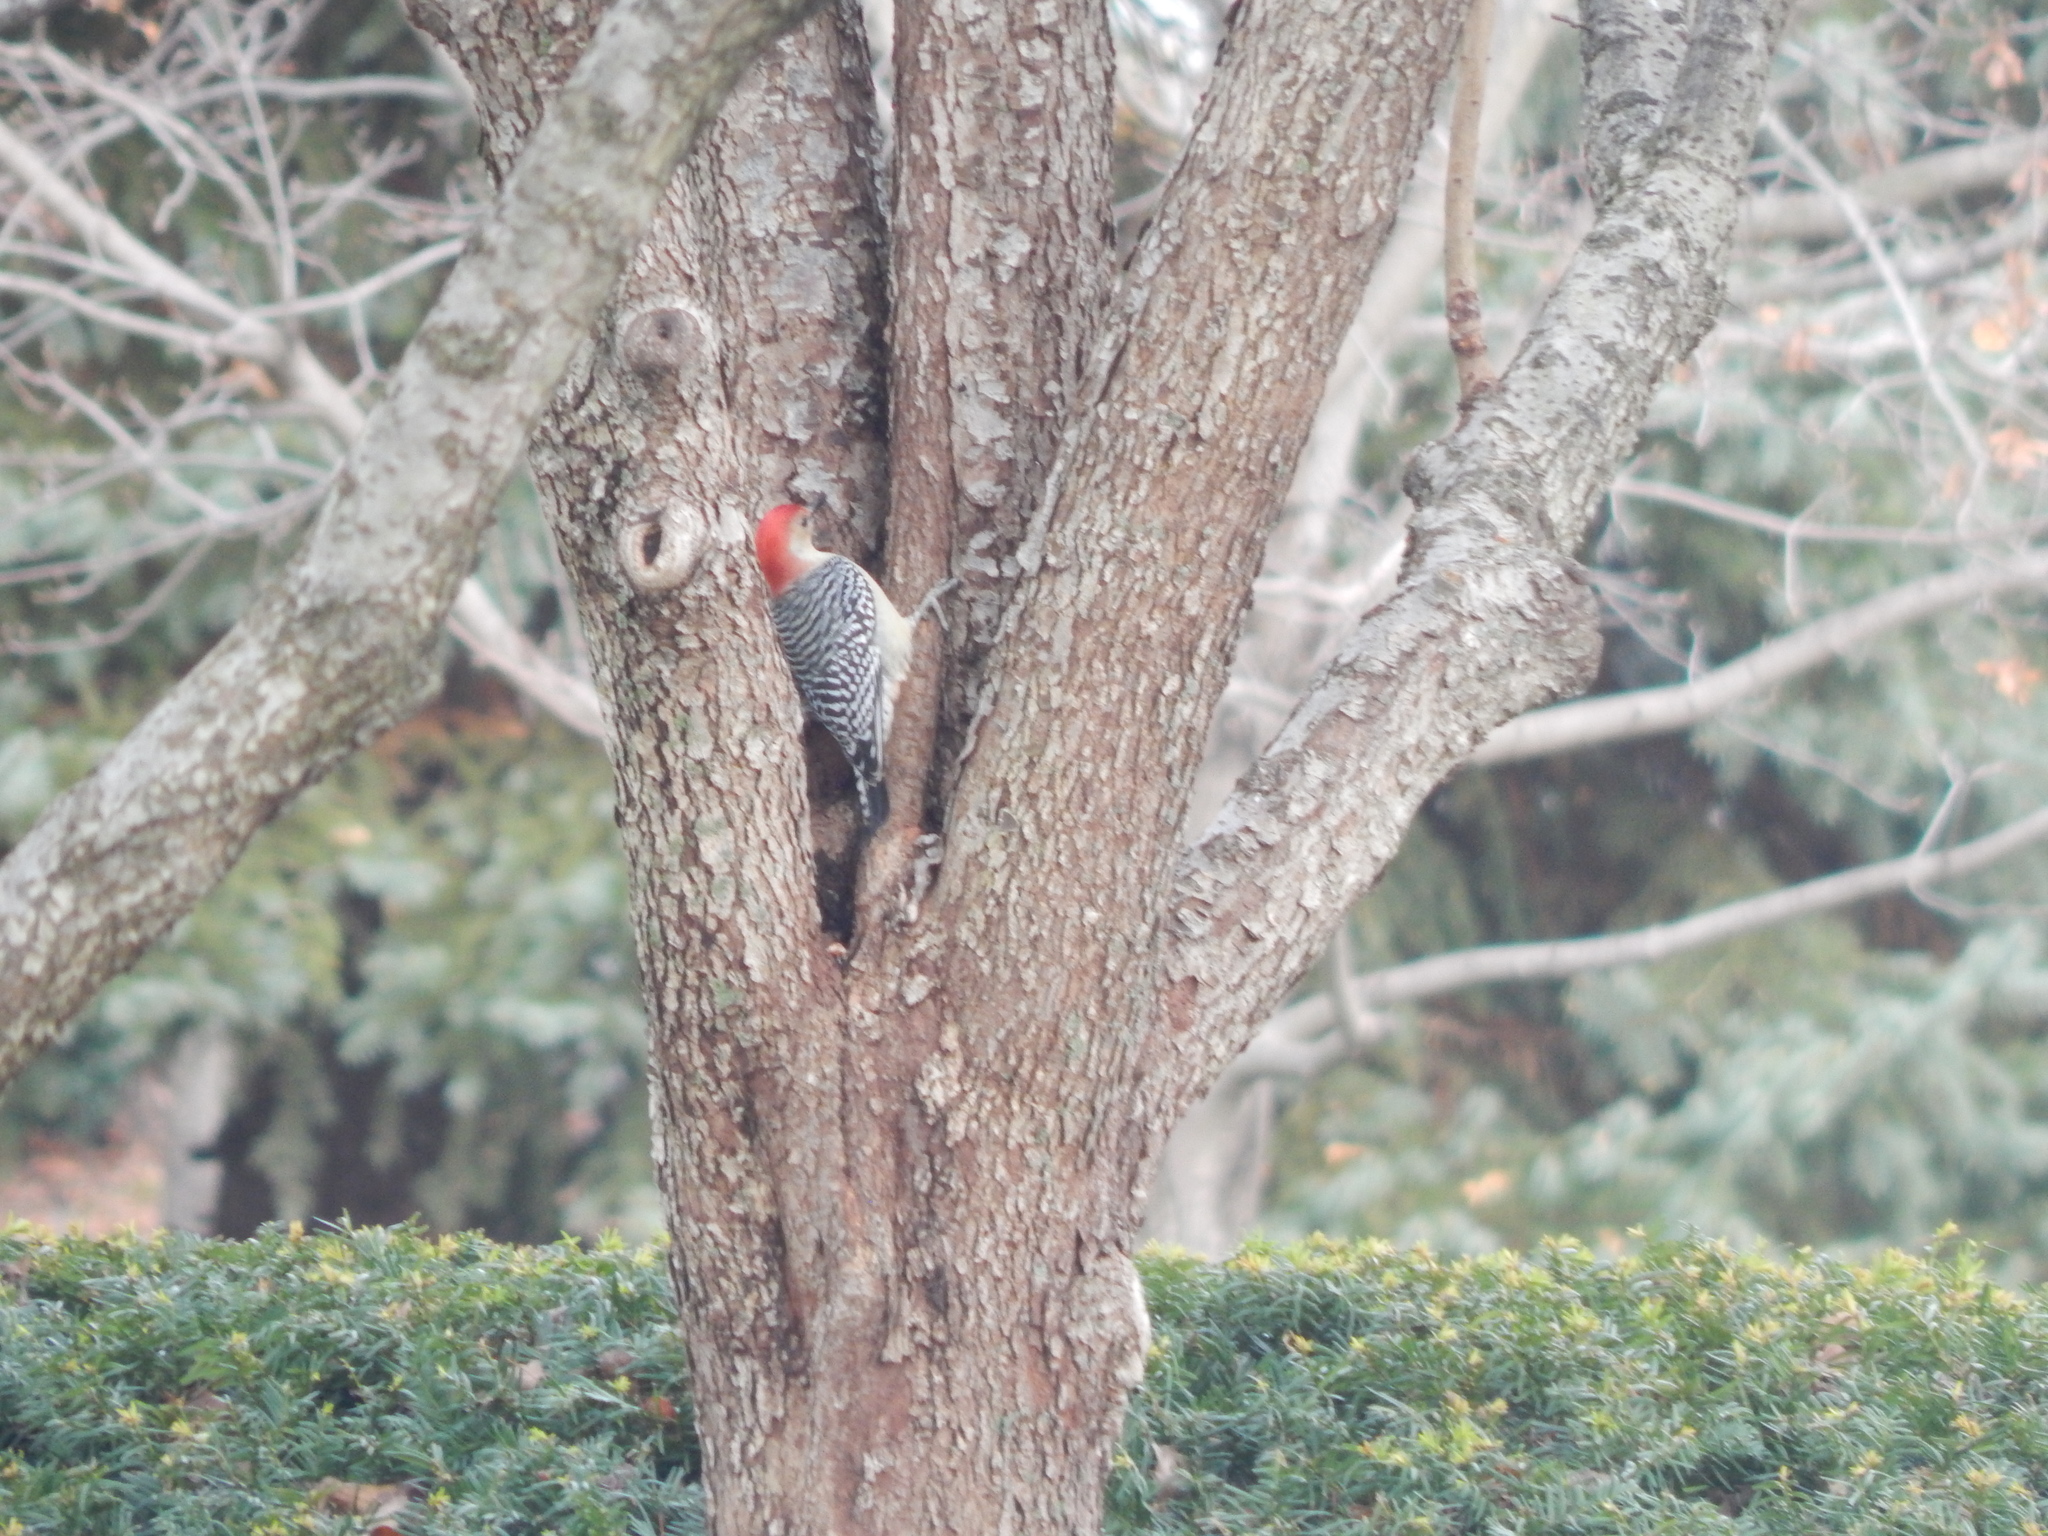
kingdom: Animalia
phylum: Chordata
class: Aves
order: Piciformes
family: Picidae
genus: Melanerpes
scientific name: Melanerpes carolinus
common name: Red-bellied woodpecker
